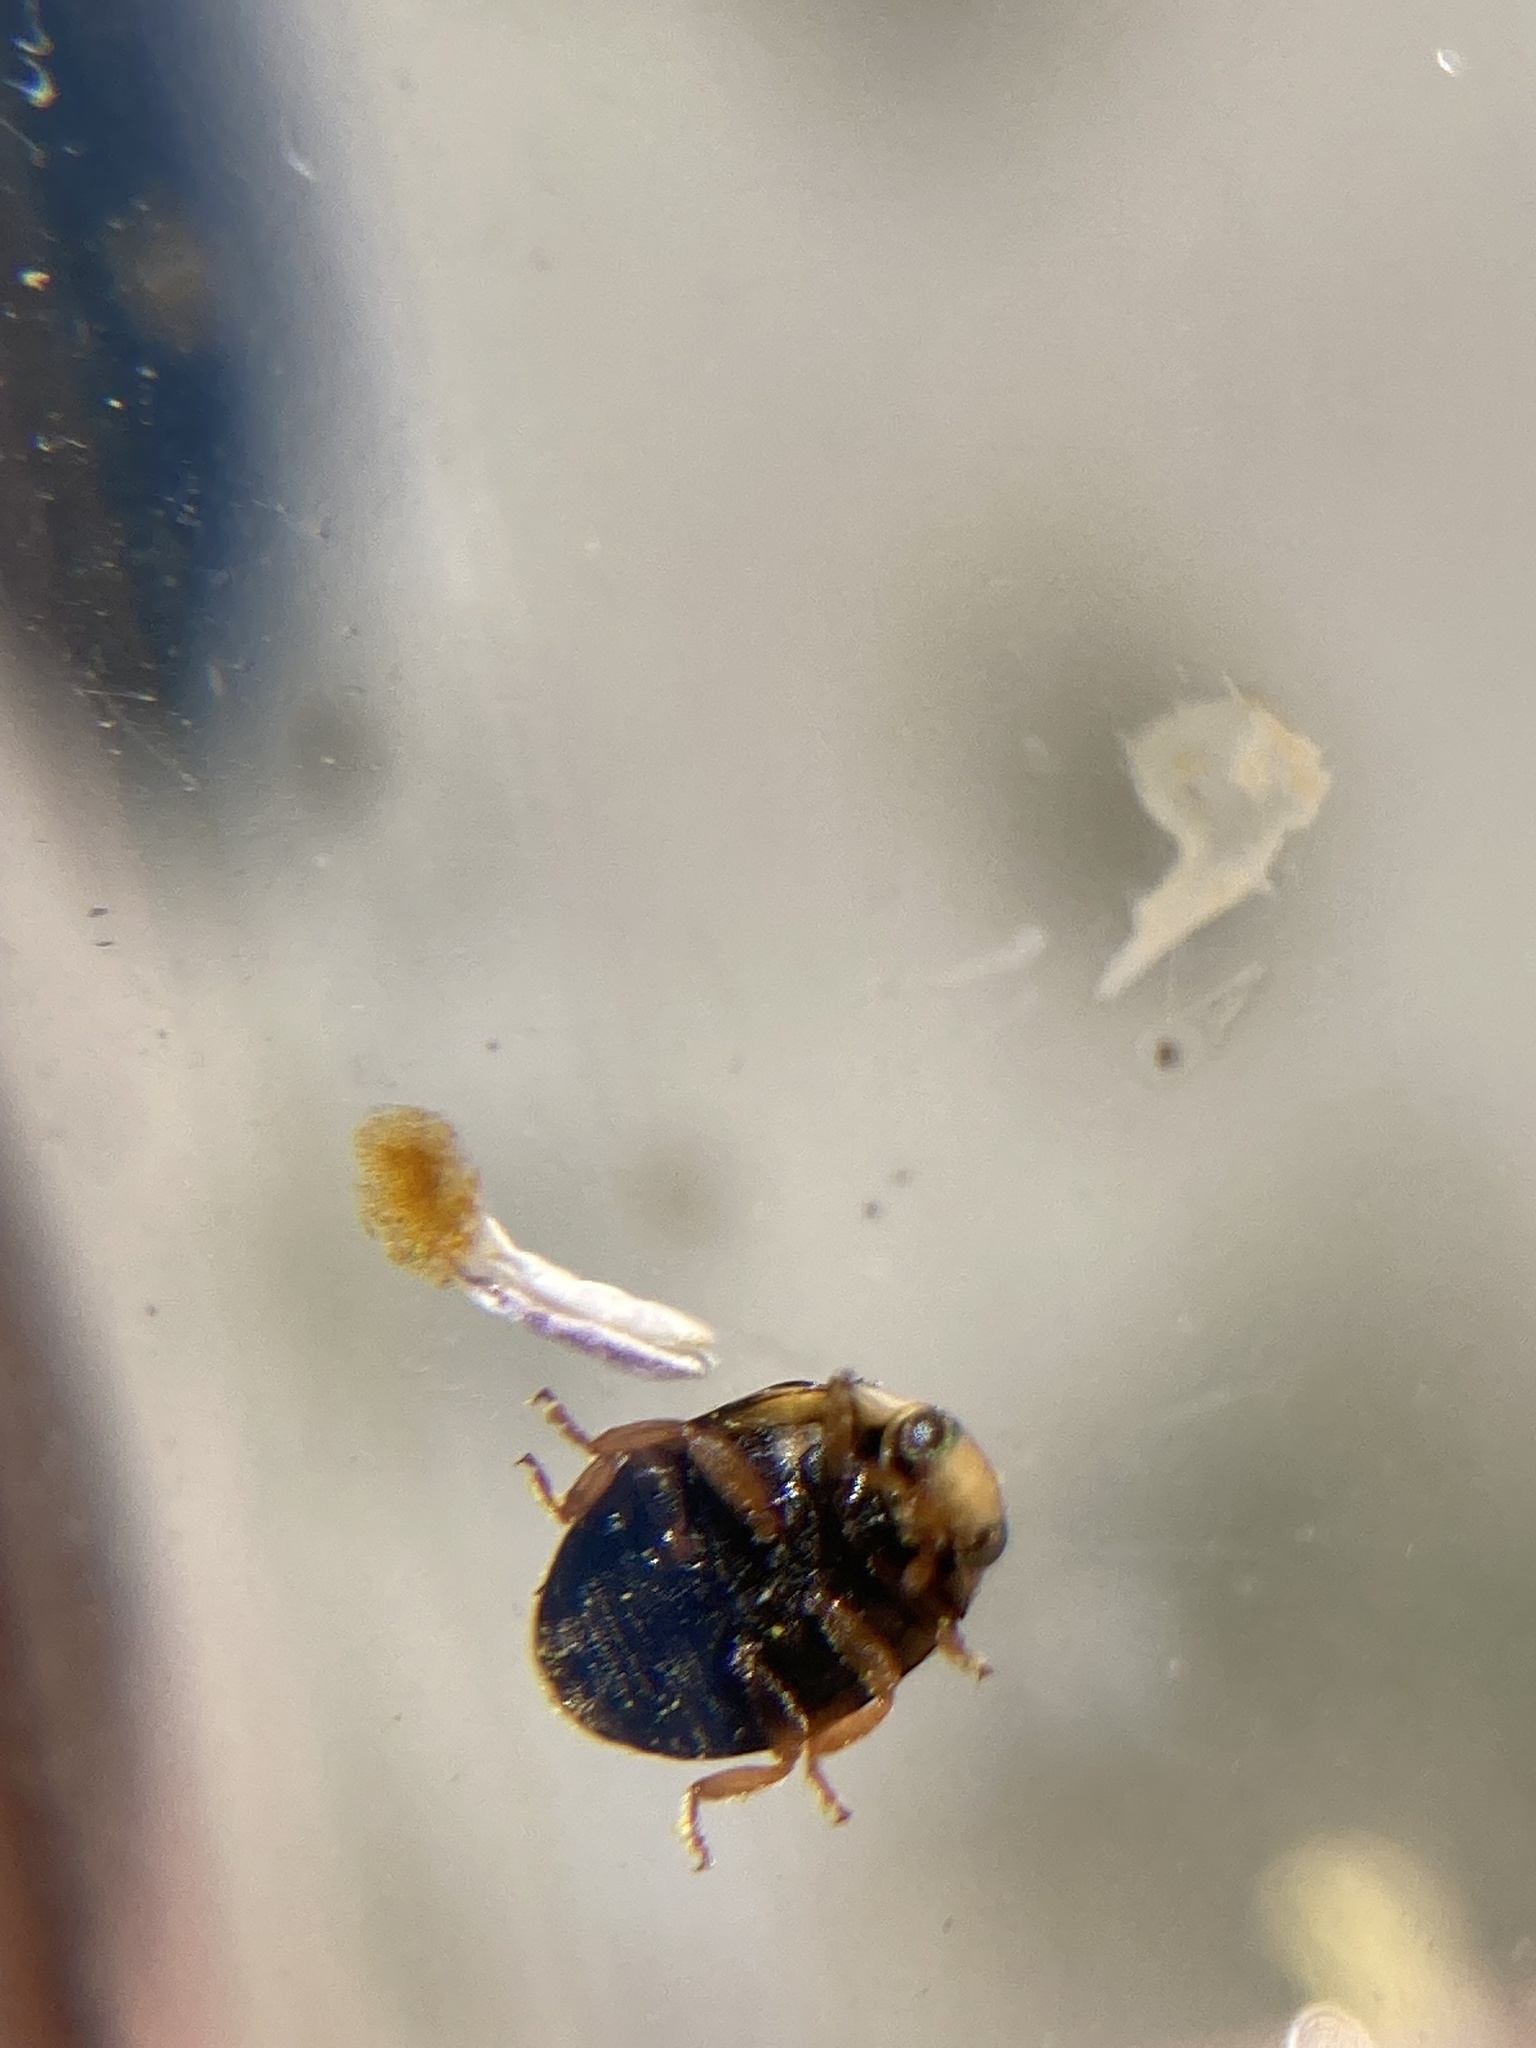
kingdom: Animalia
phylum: Arthropoda
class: Insecta
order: Coleoptera
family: Coccinellidae
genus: Brachiacantha
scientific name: Brachiacantha ursina
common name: Ursine spurleg lady beetle
